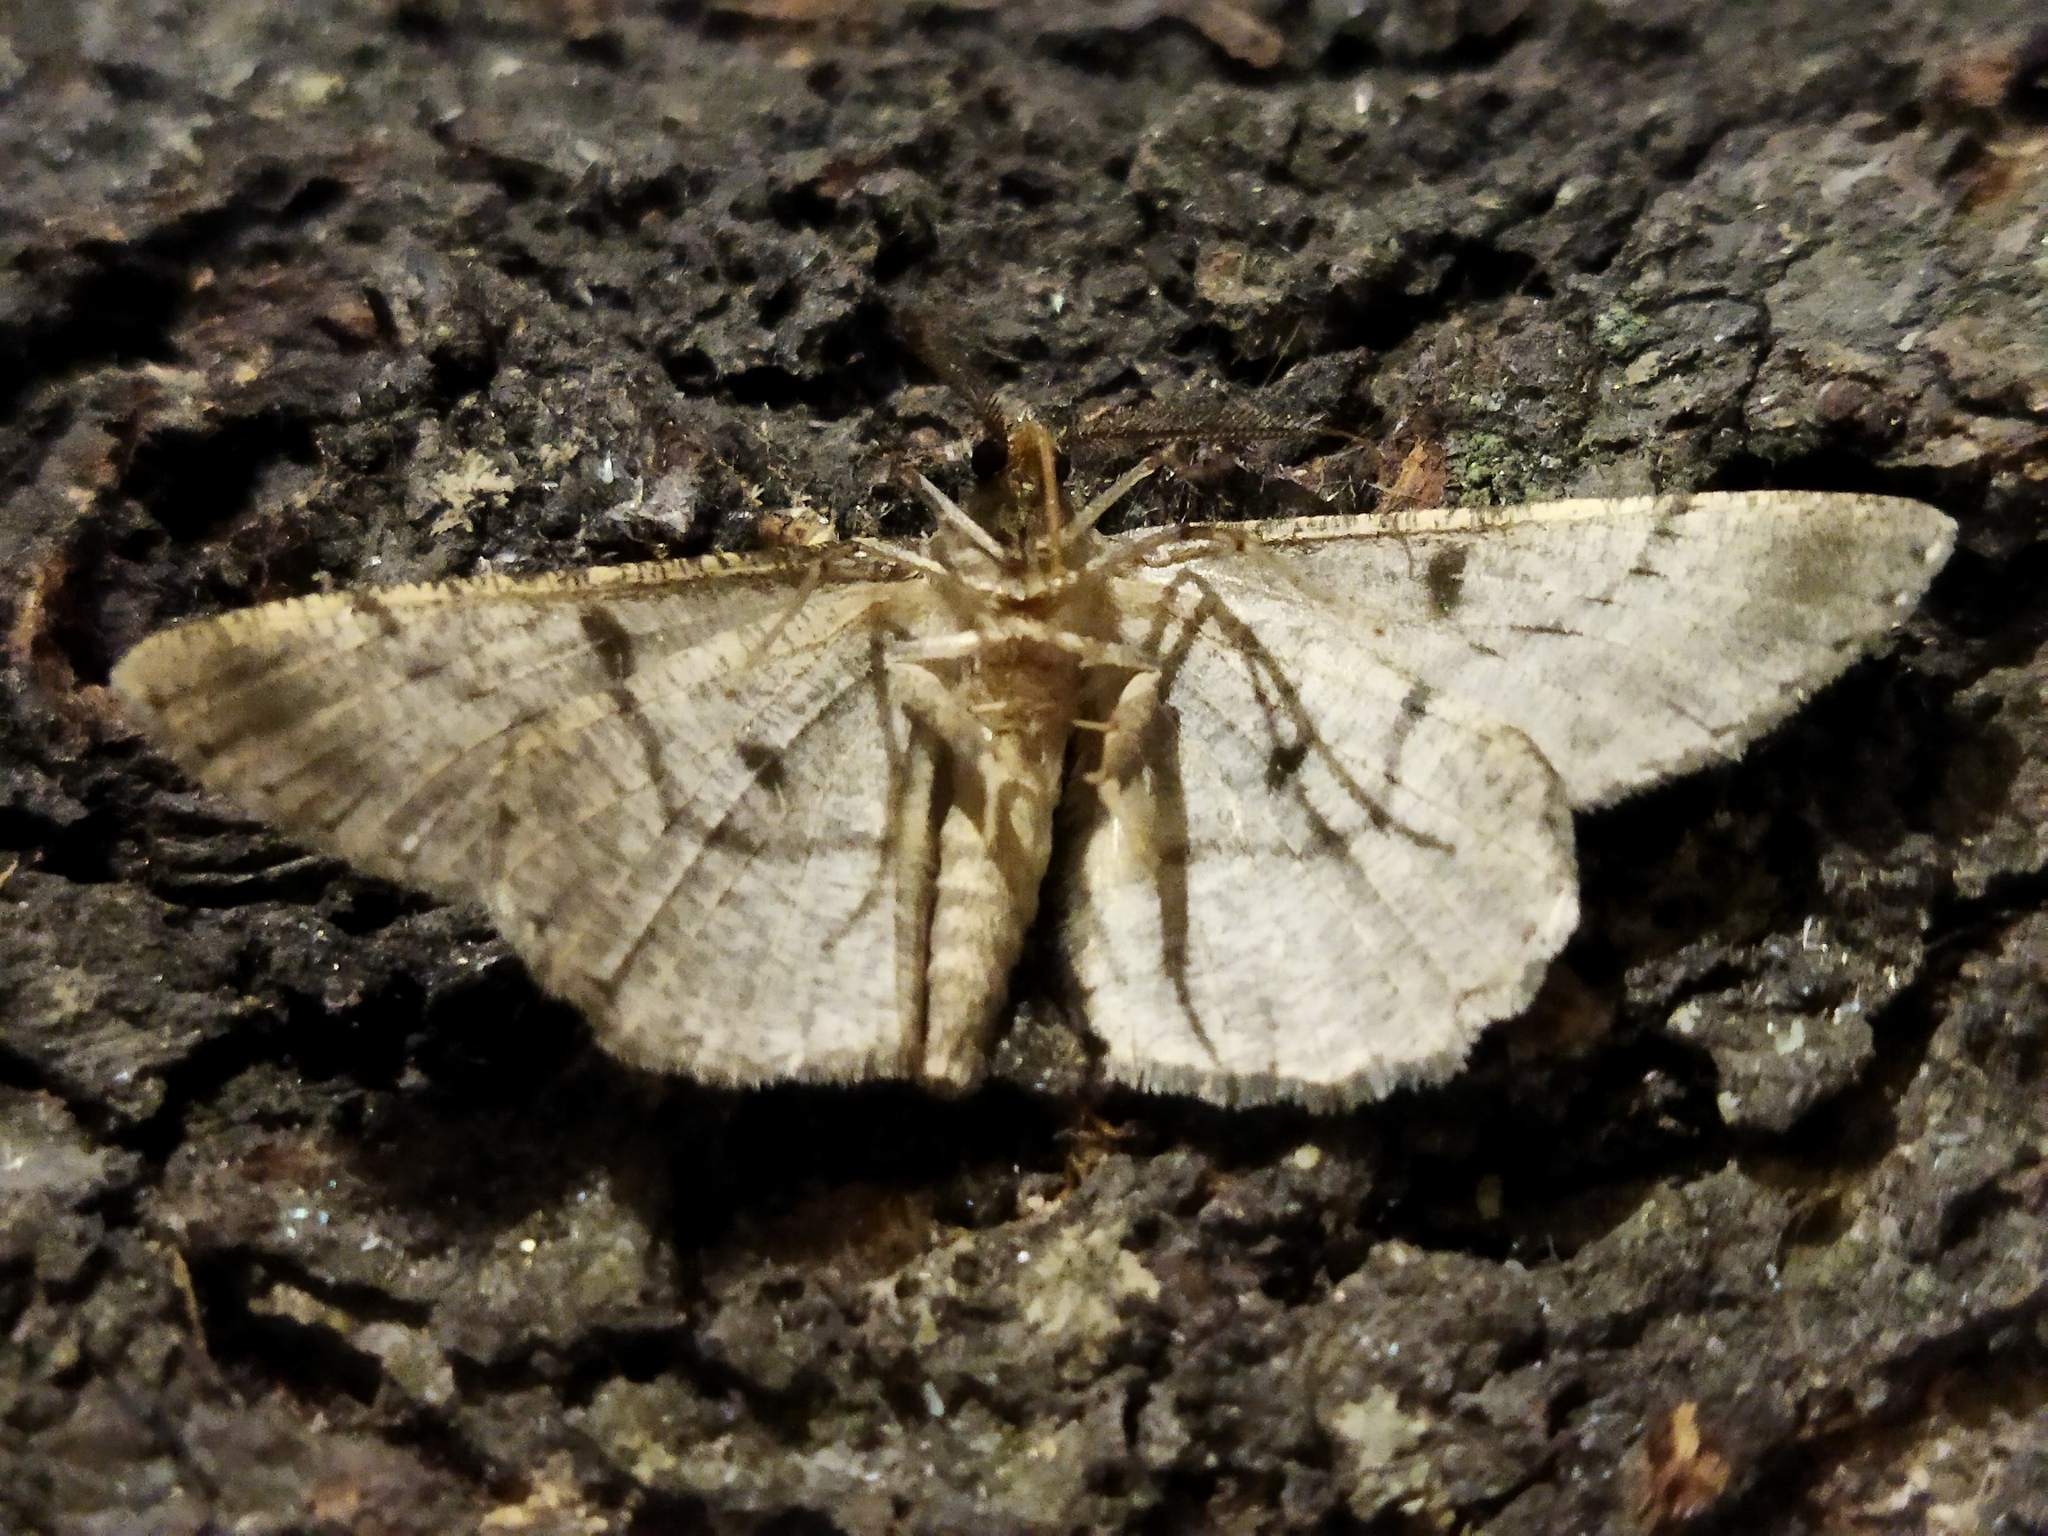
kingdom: Animalia
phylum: Arthropoda
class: Insecta
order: Lepidoptera
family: Geometridae
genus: Hypomecis
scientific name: Hypomecis punctinalis
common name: Pale oak beauty
